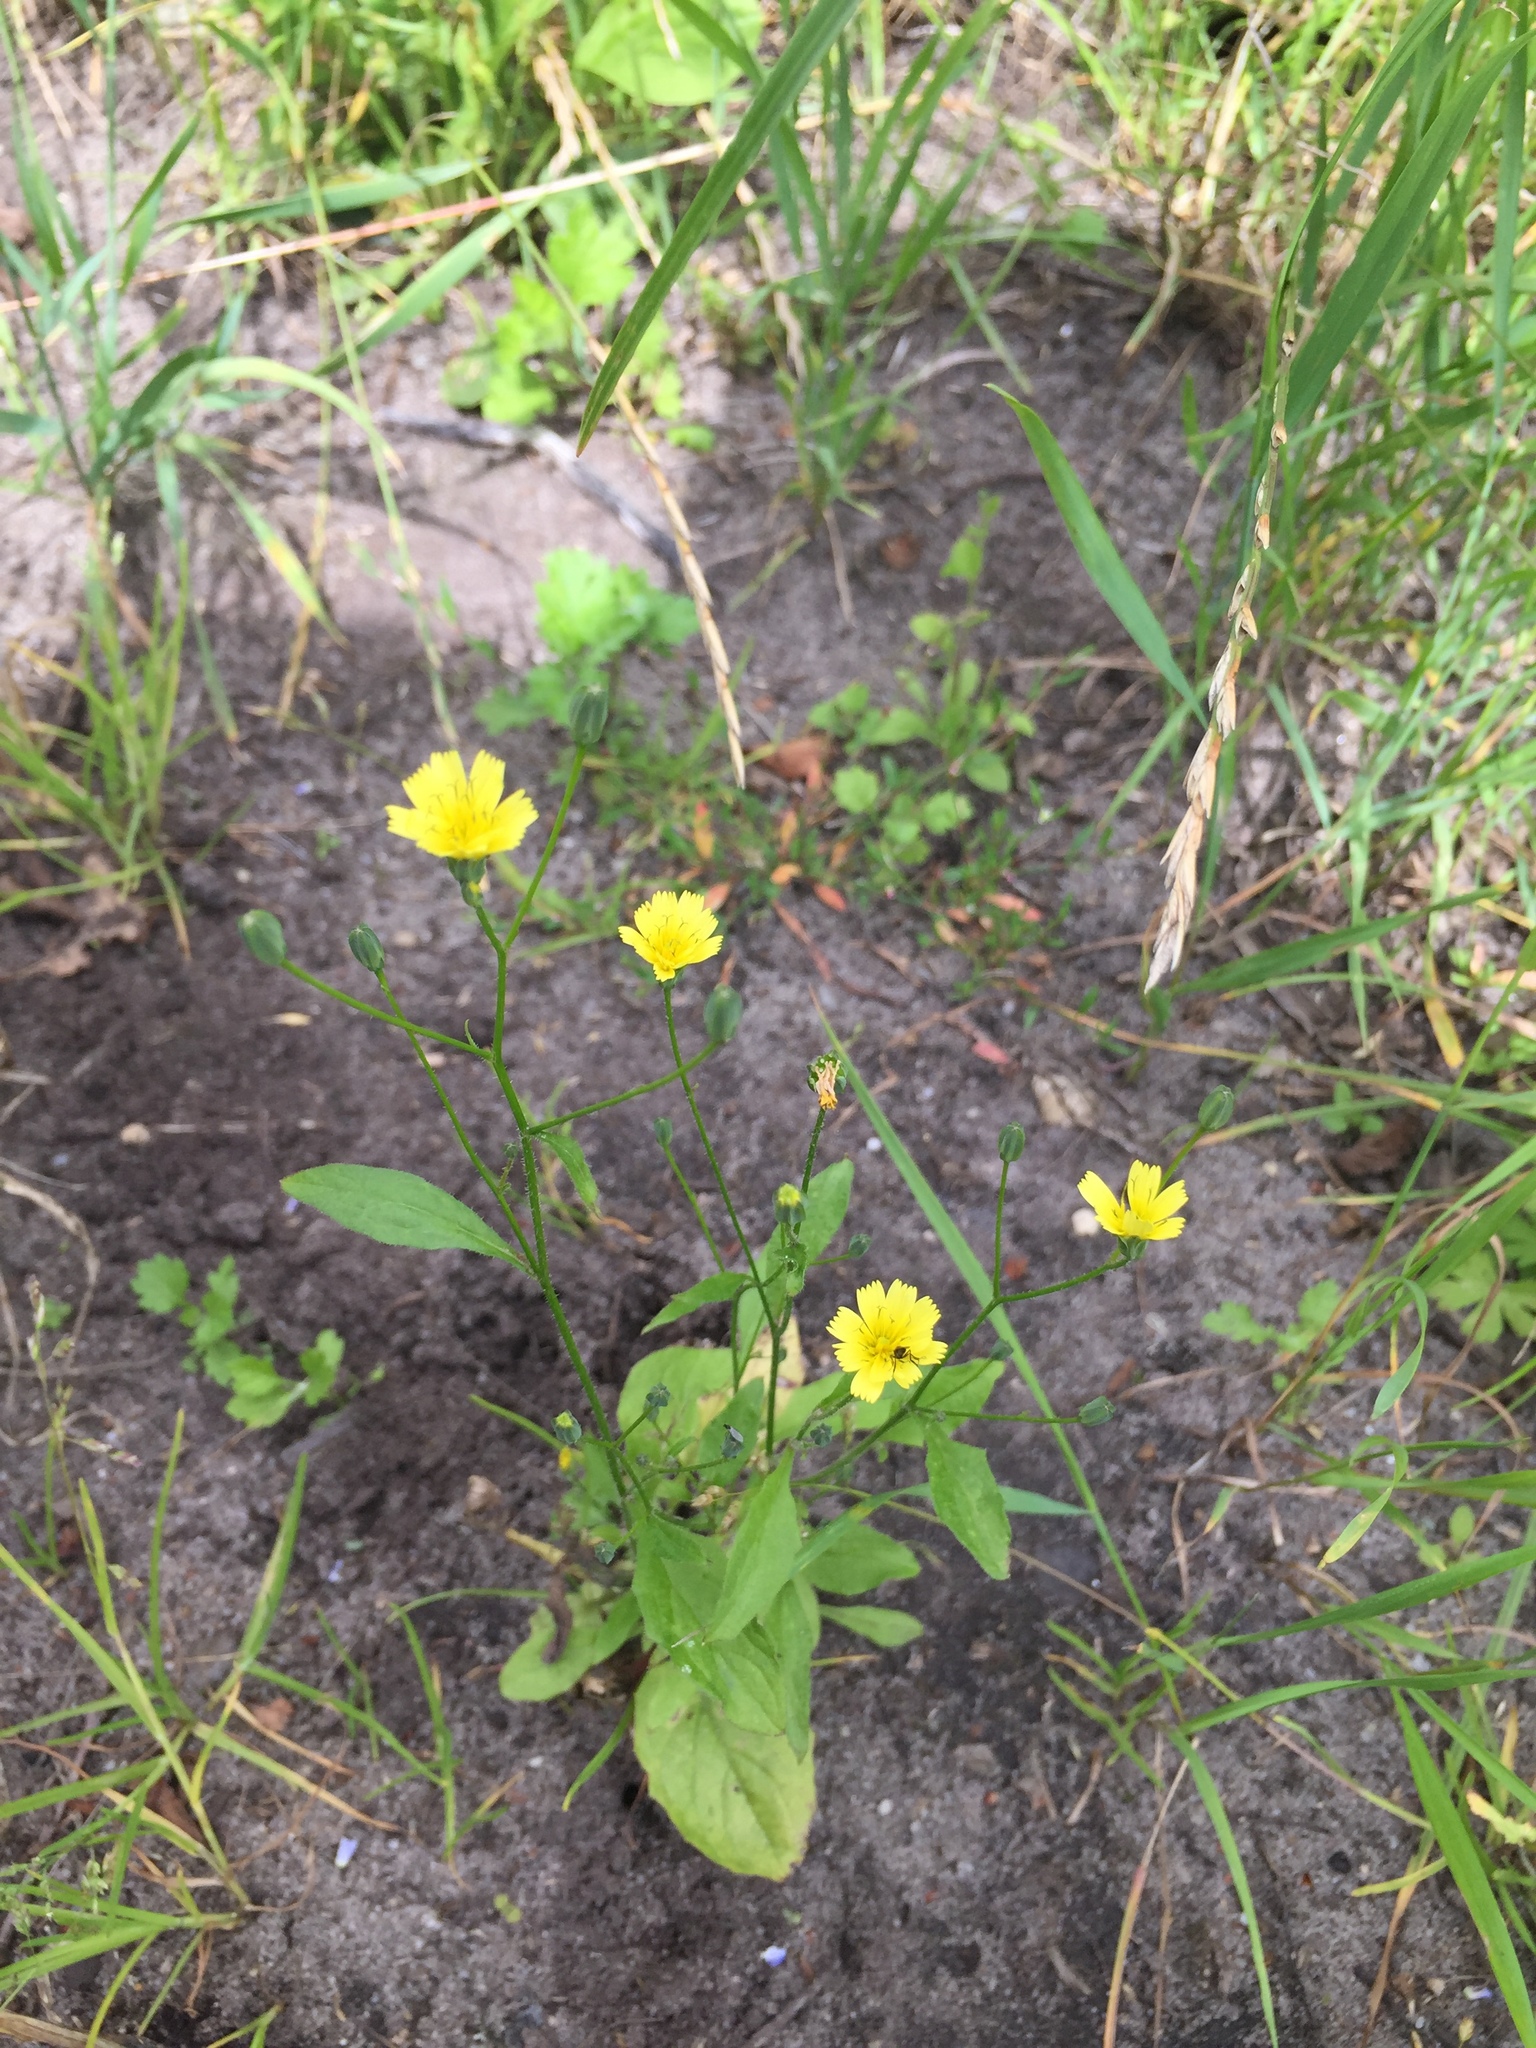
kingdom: Plantae
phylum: Tracheophyta
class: Magnoliopsida
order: Asterales
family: Asteraceae
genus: Lapsana
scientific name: Lapsana communis
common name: Nipplewort
